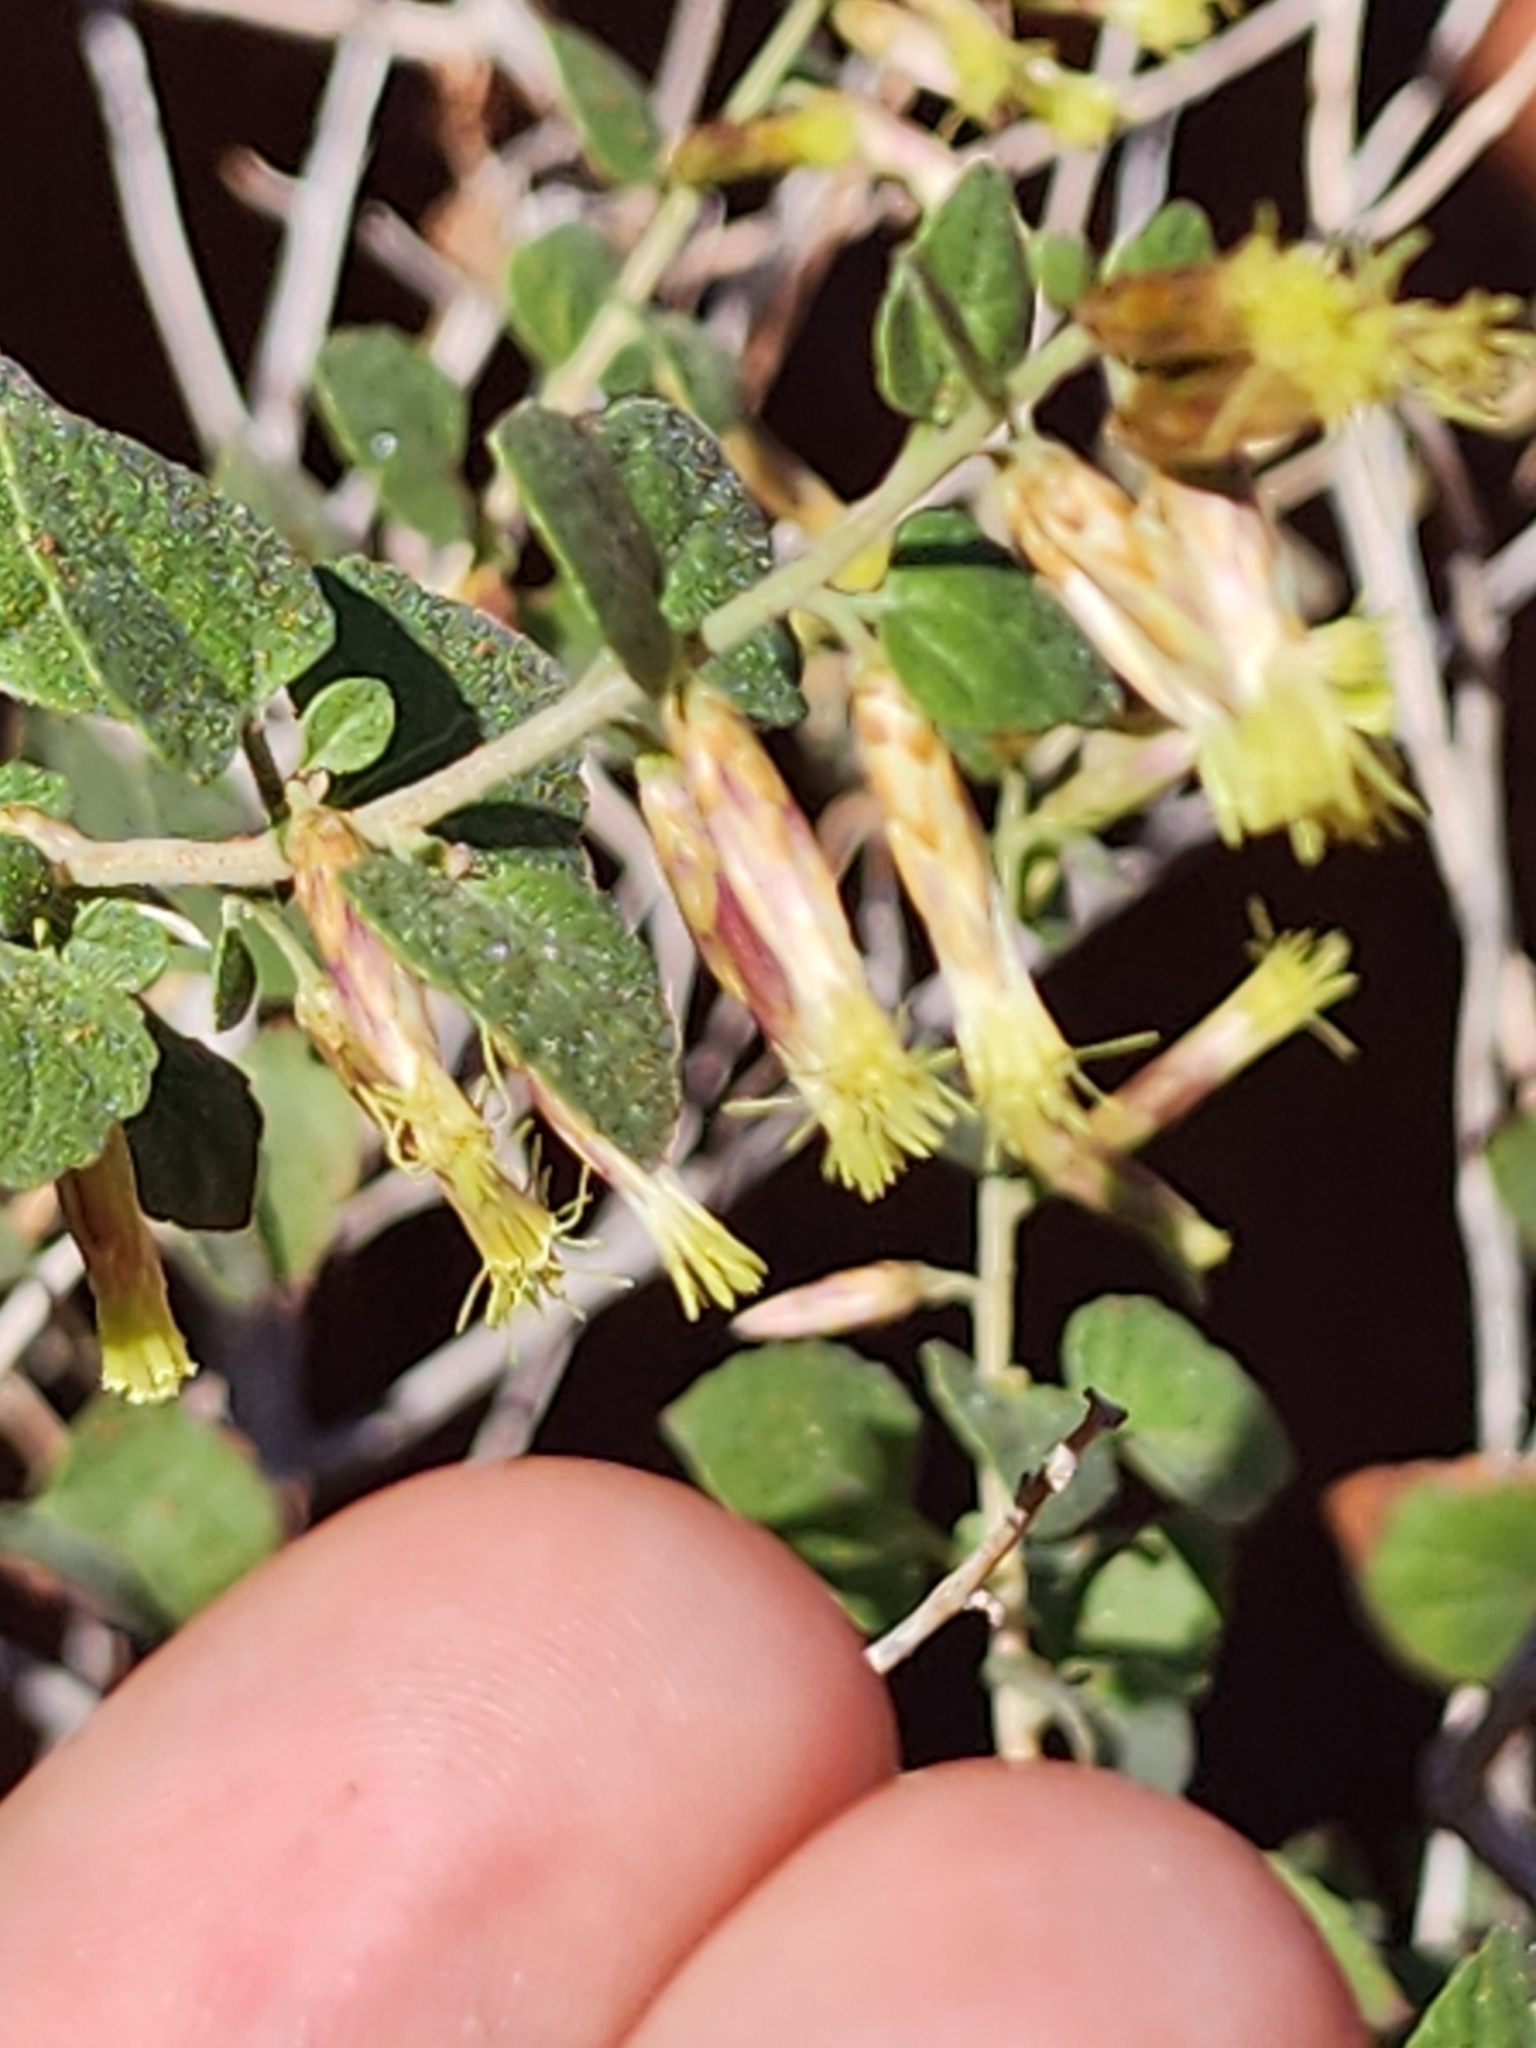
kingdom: Plantae
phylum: Tracheophyta
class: Magnoliopsida
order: Asterales
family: Asteraceae
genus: Brickellia
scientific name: Brickellia californica
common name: California brickellbush
